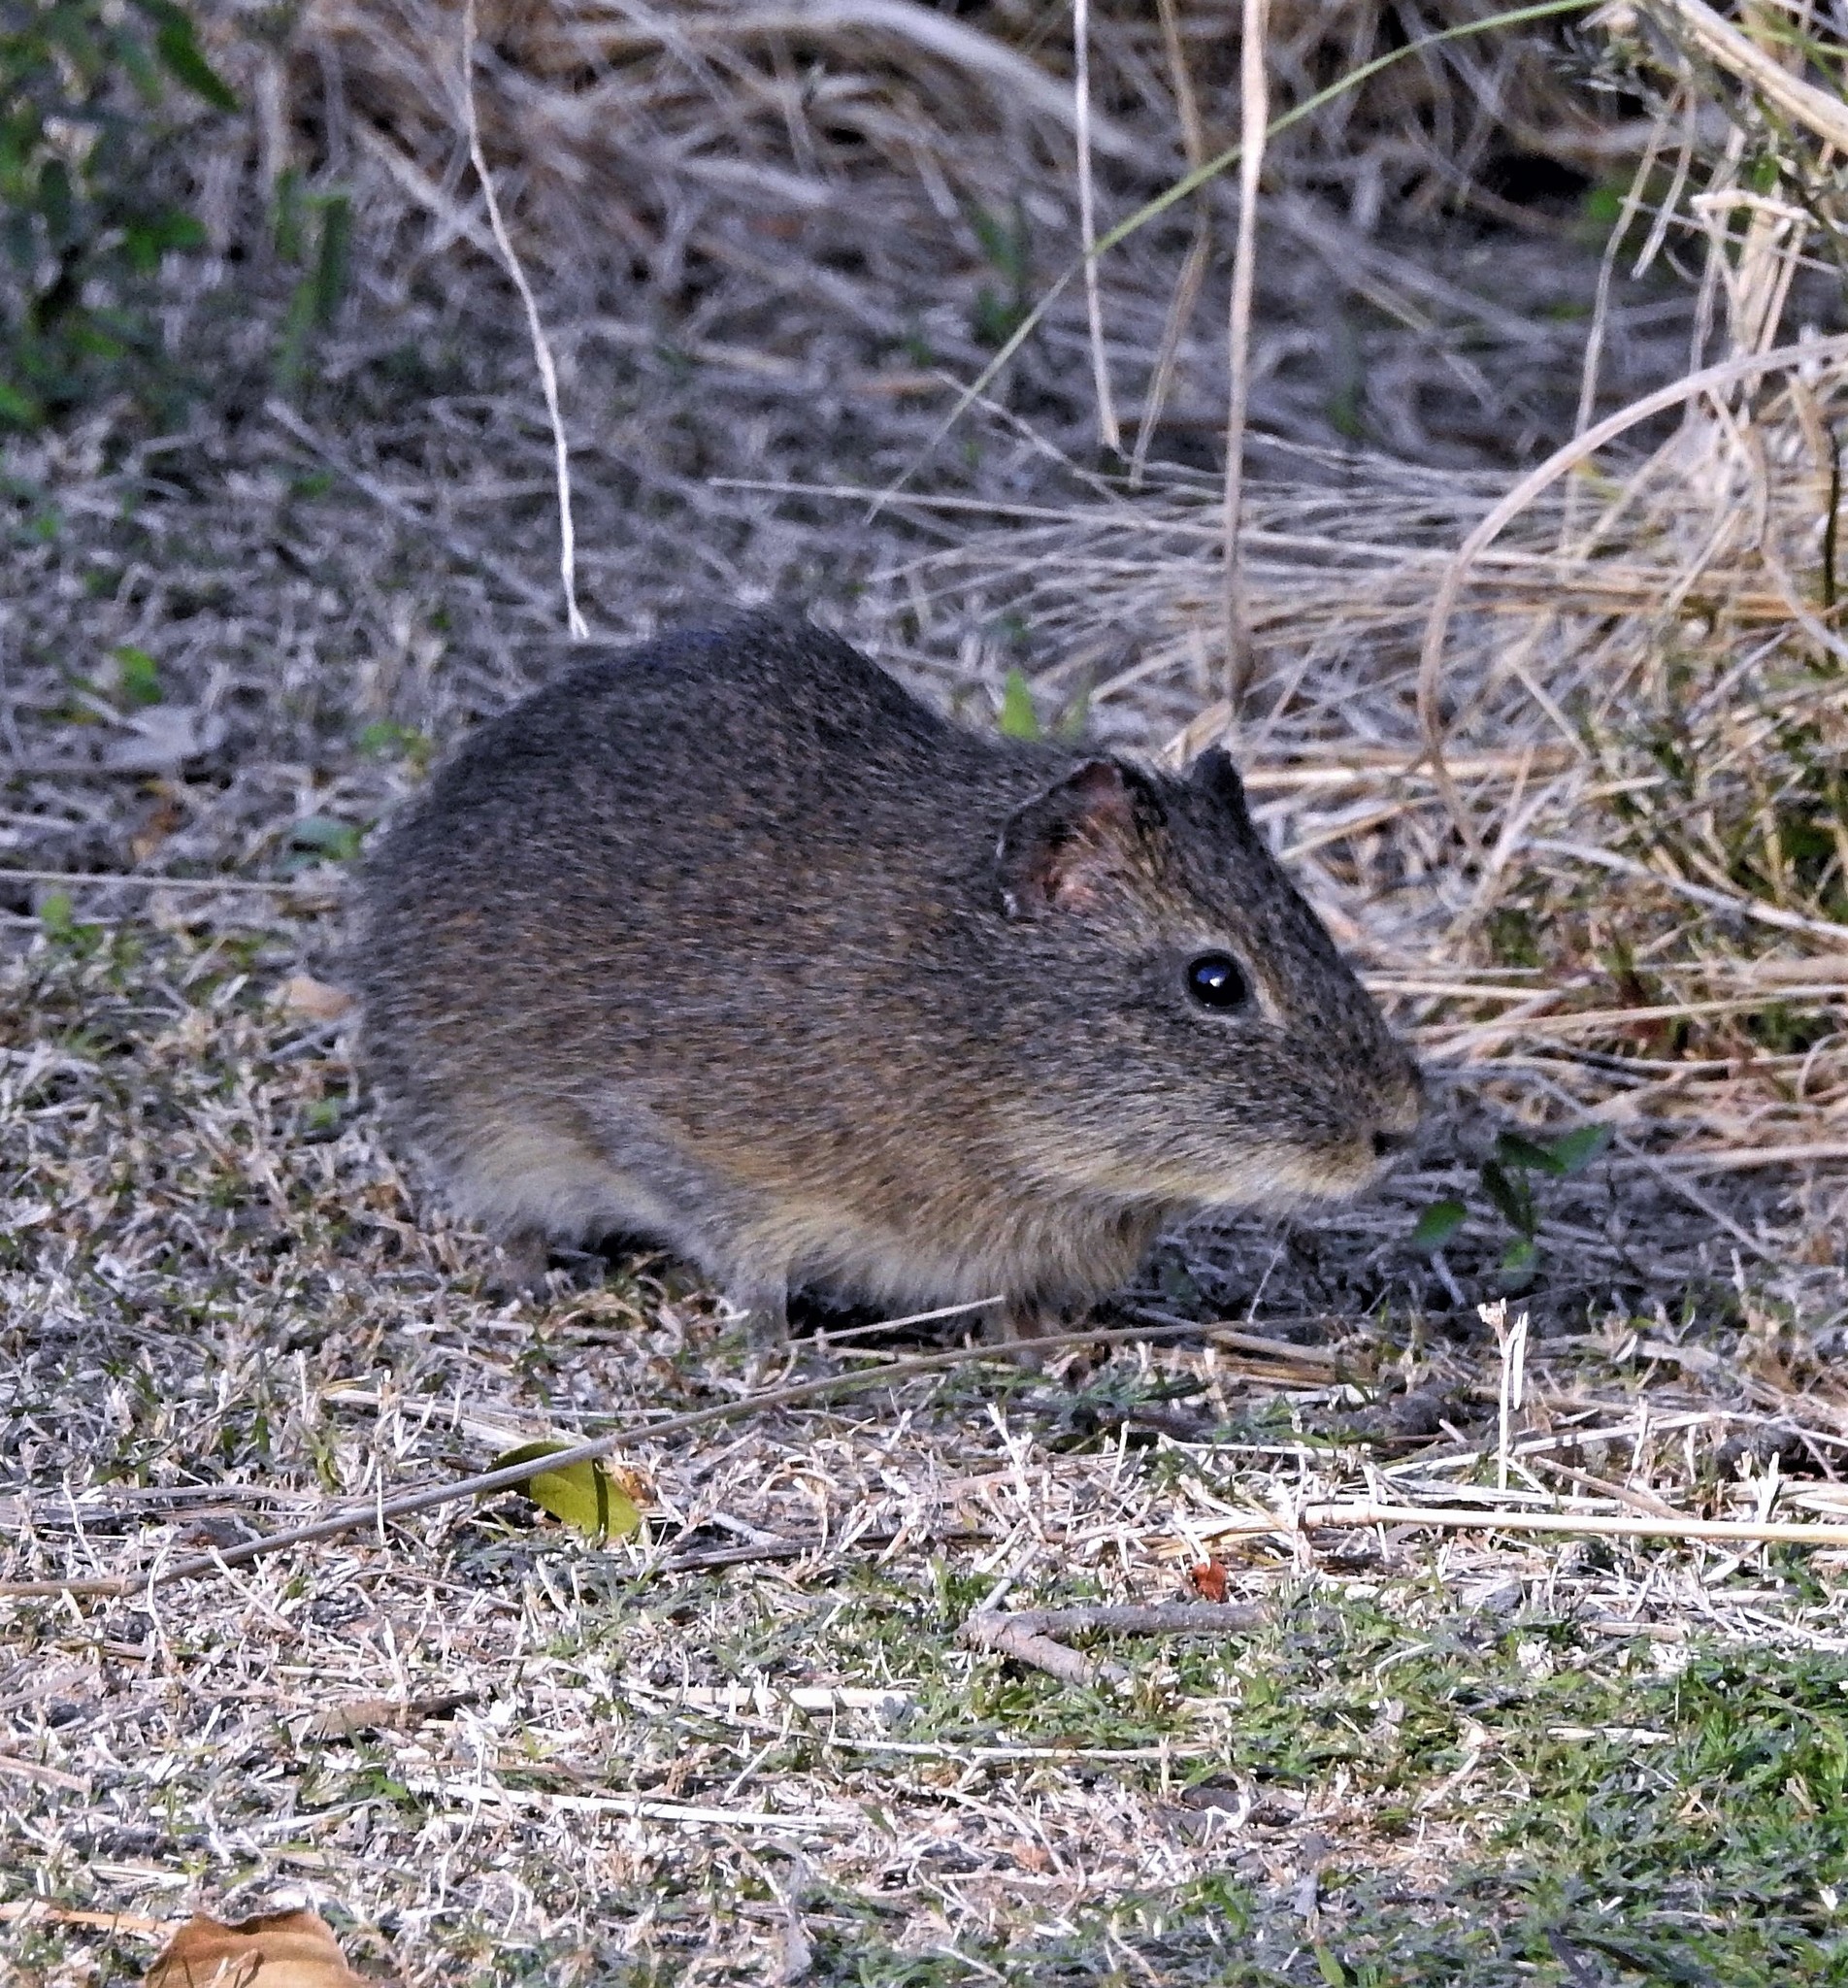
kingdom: Animalia
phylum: Chordata
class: Mammalia
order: Rodentia
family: Caviidae
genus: Cavia
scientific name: Cavia aperea
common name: Brazilian guinea pig
